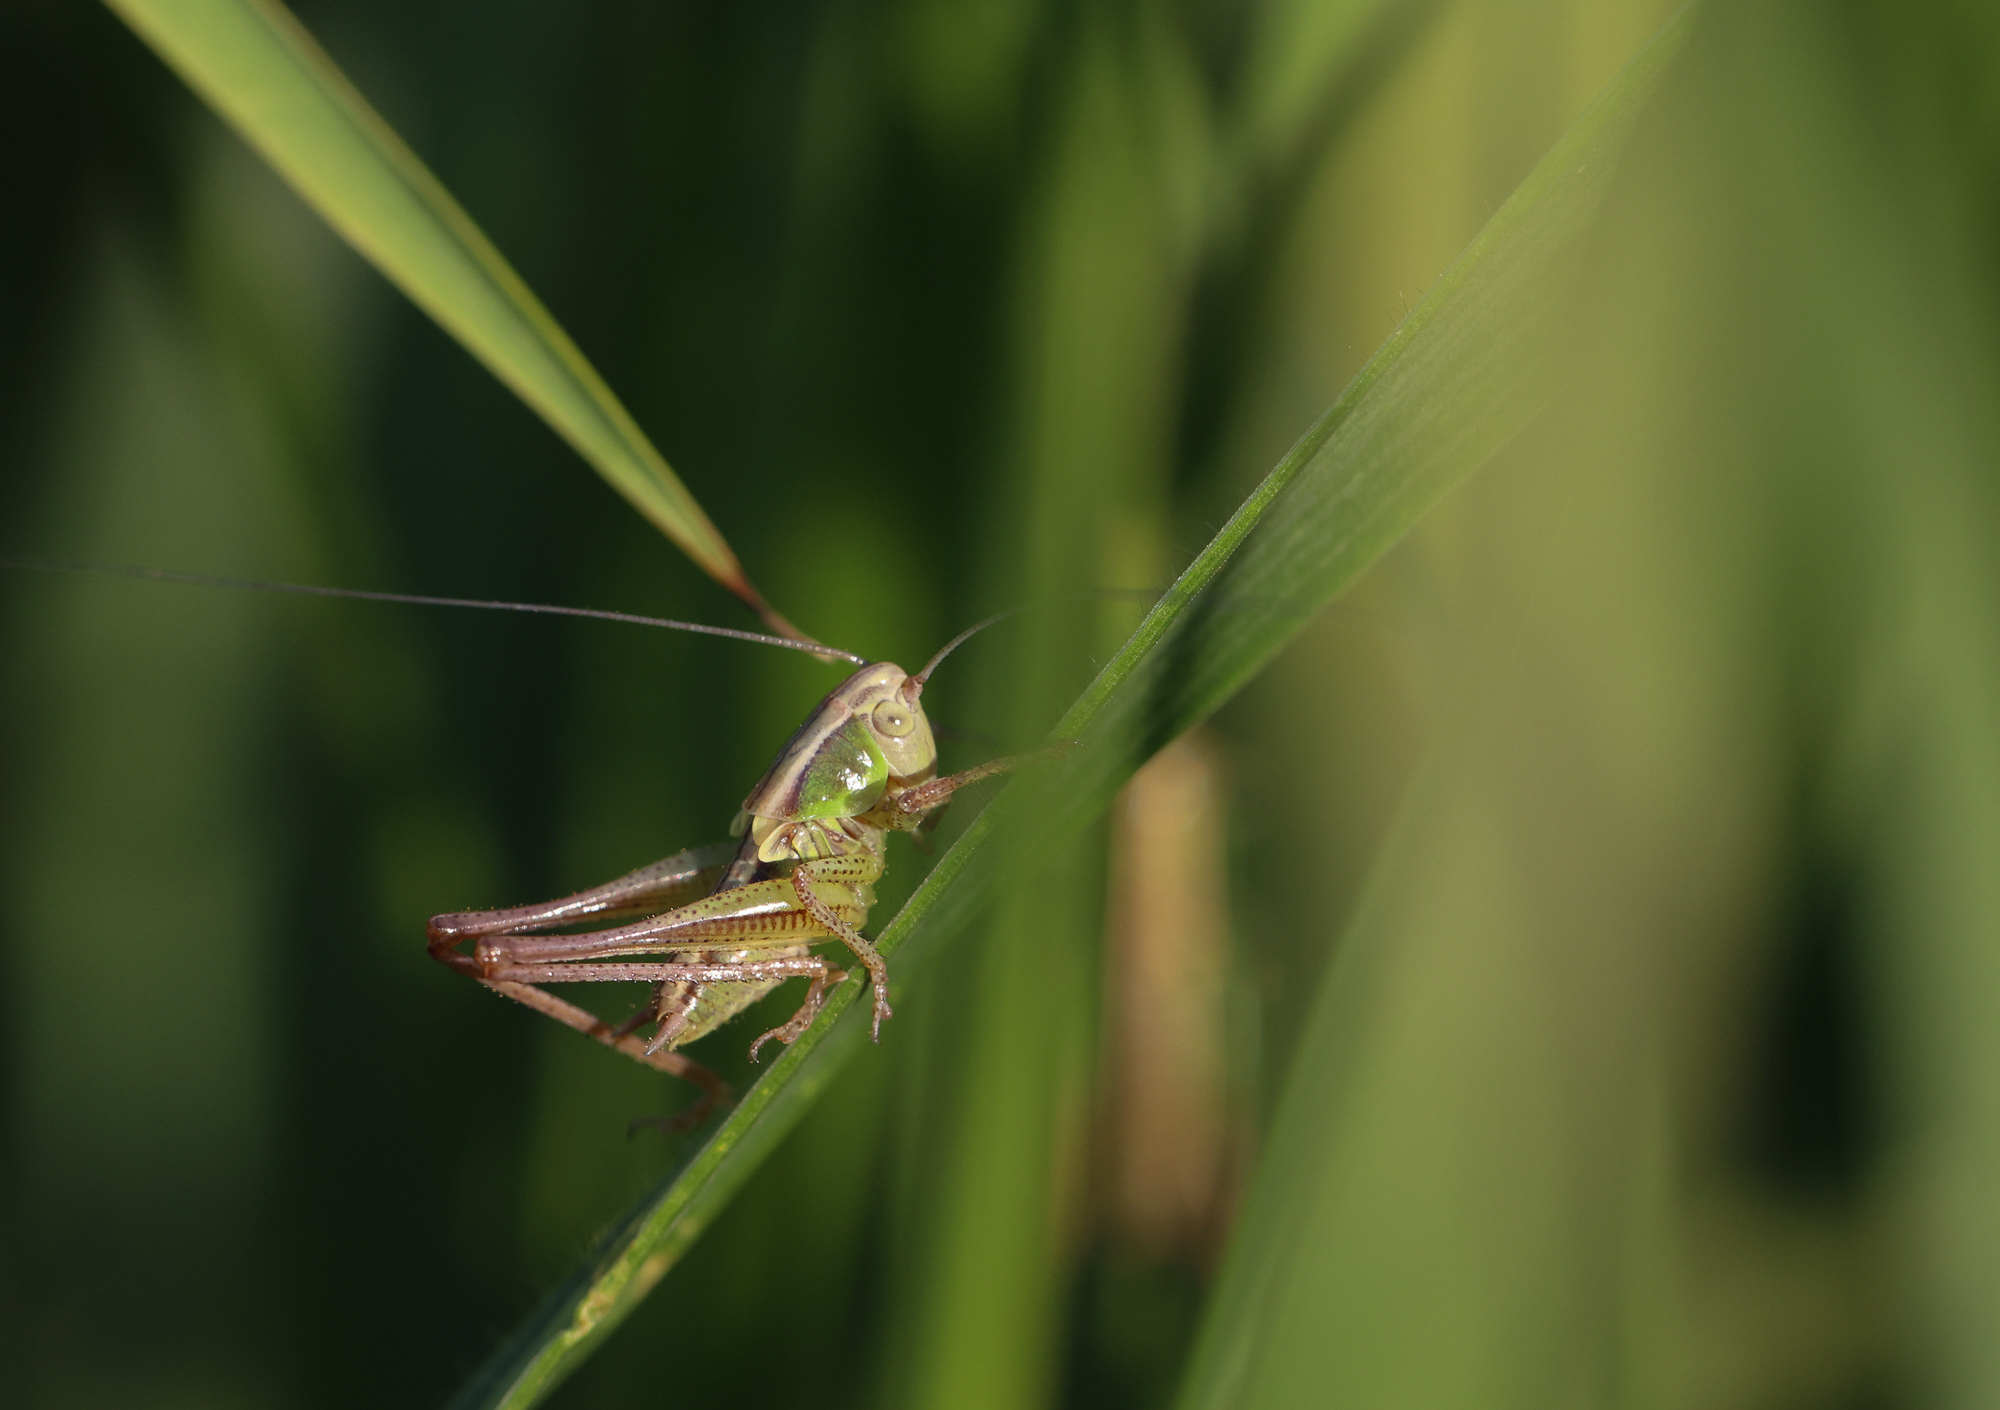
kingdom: Animalia
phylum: Arthropoda
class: Insecta
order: Orthoptera
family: Tettigoniidae
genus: Roeseliana
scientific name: Roeseliana roeselii
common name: Roesel's bush cricket
